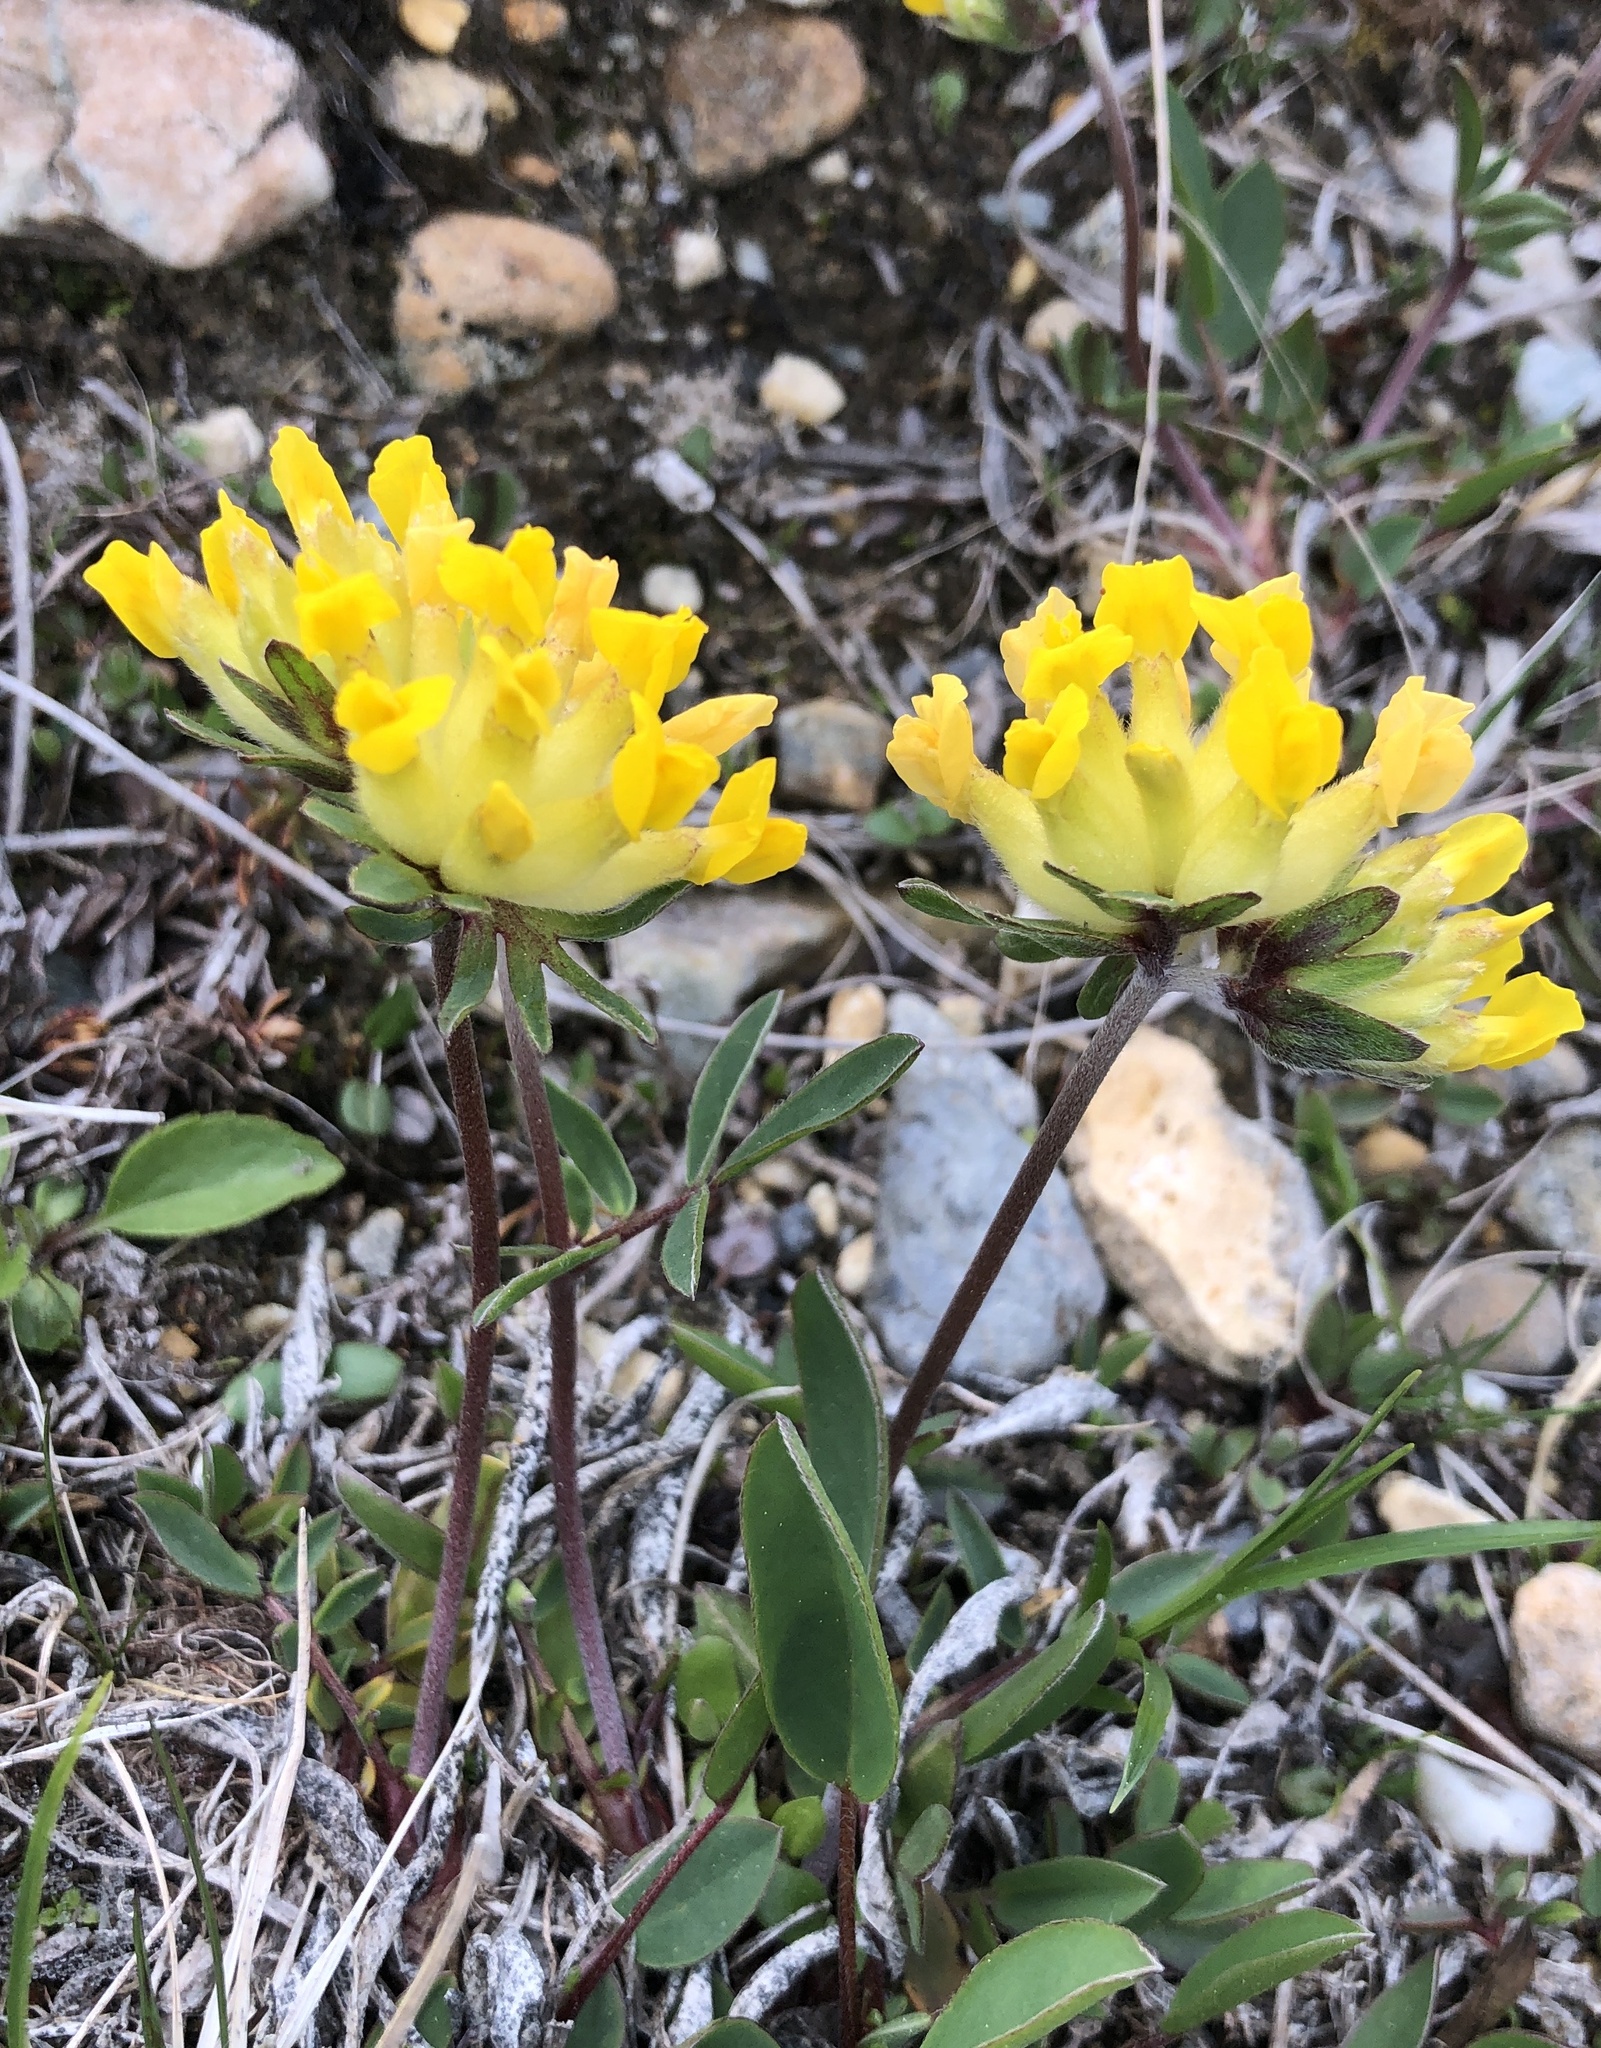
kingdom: Plantae
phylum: Tracheophyta
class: Magnoliopsida
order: Fabales
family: Fabaceae
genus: Anthyllis
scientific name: Anthyllis vulneraria
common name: Kidney vetch
